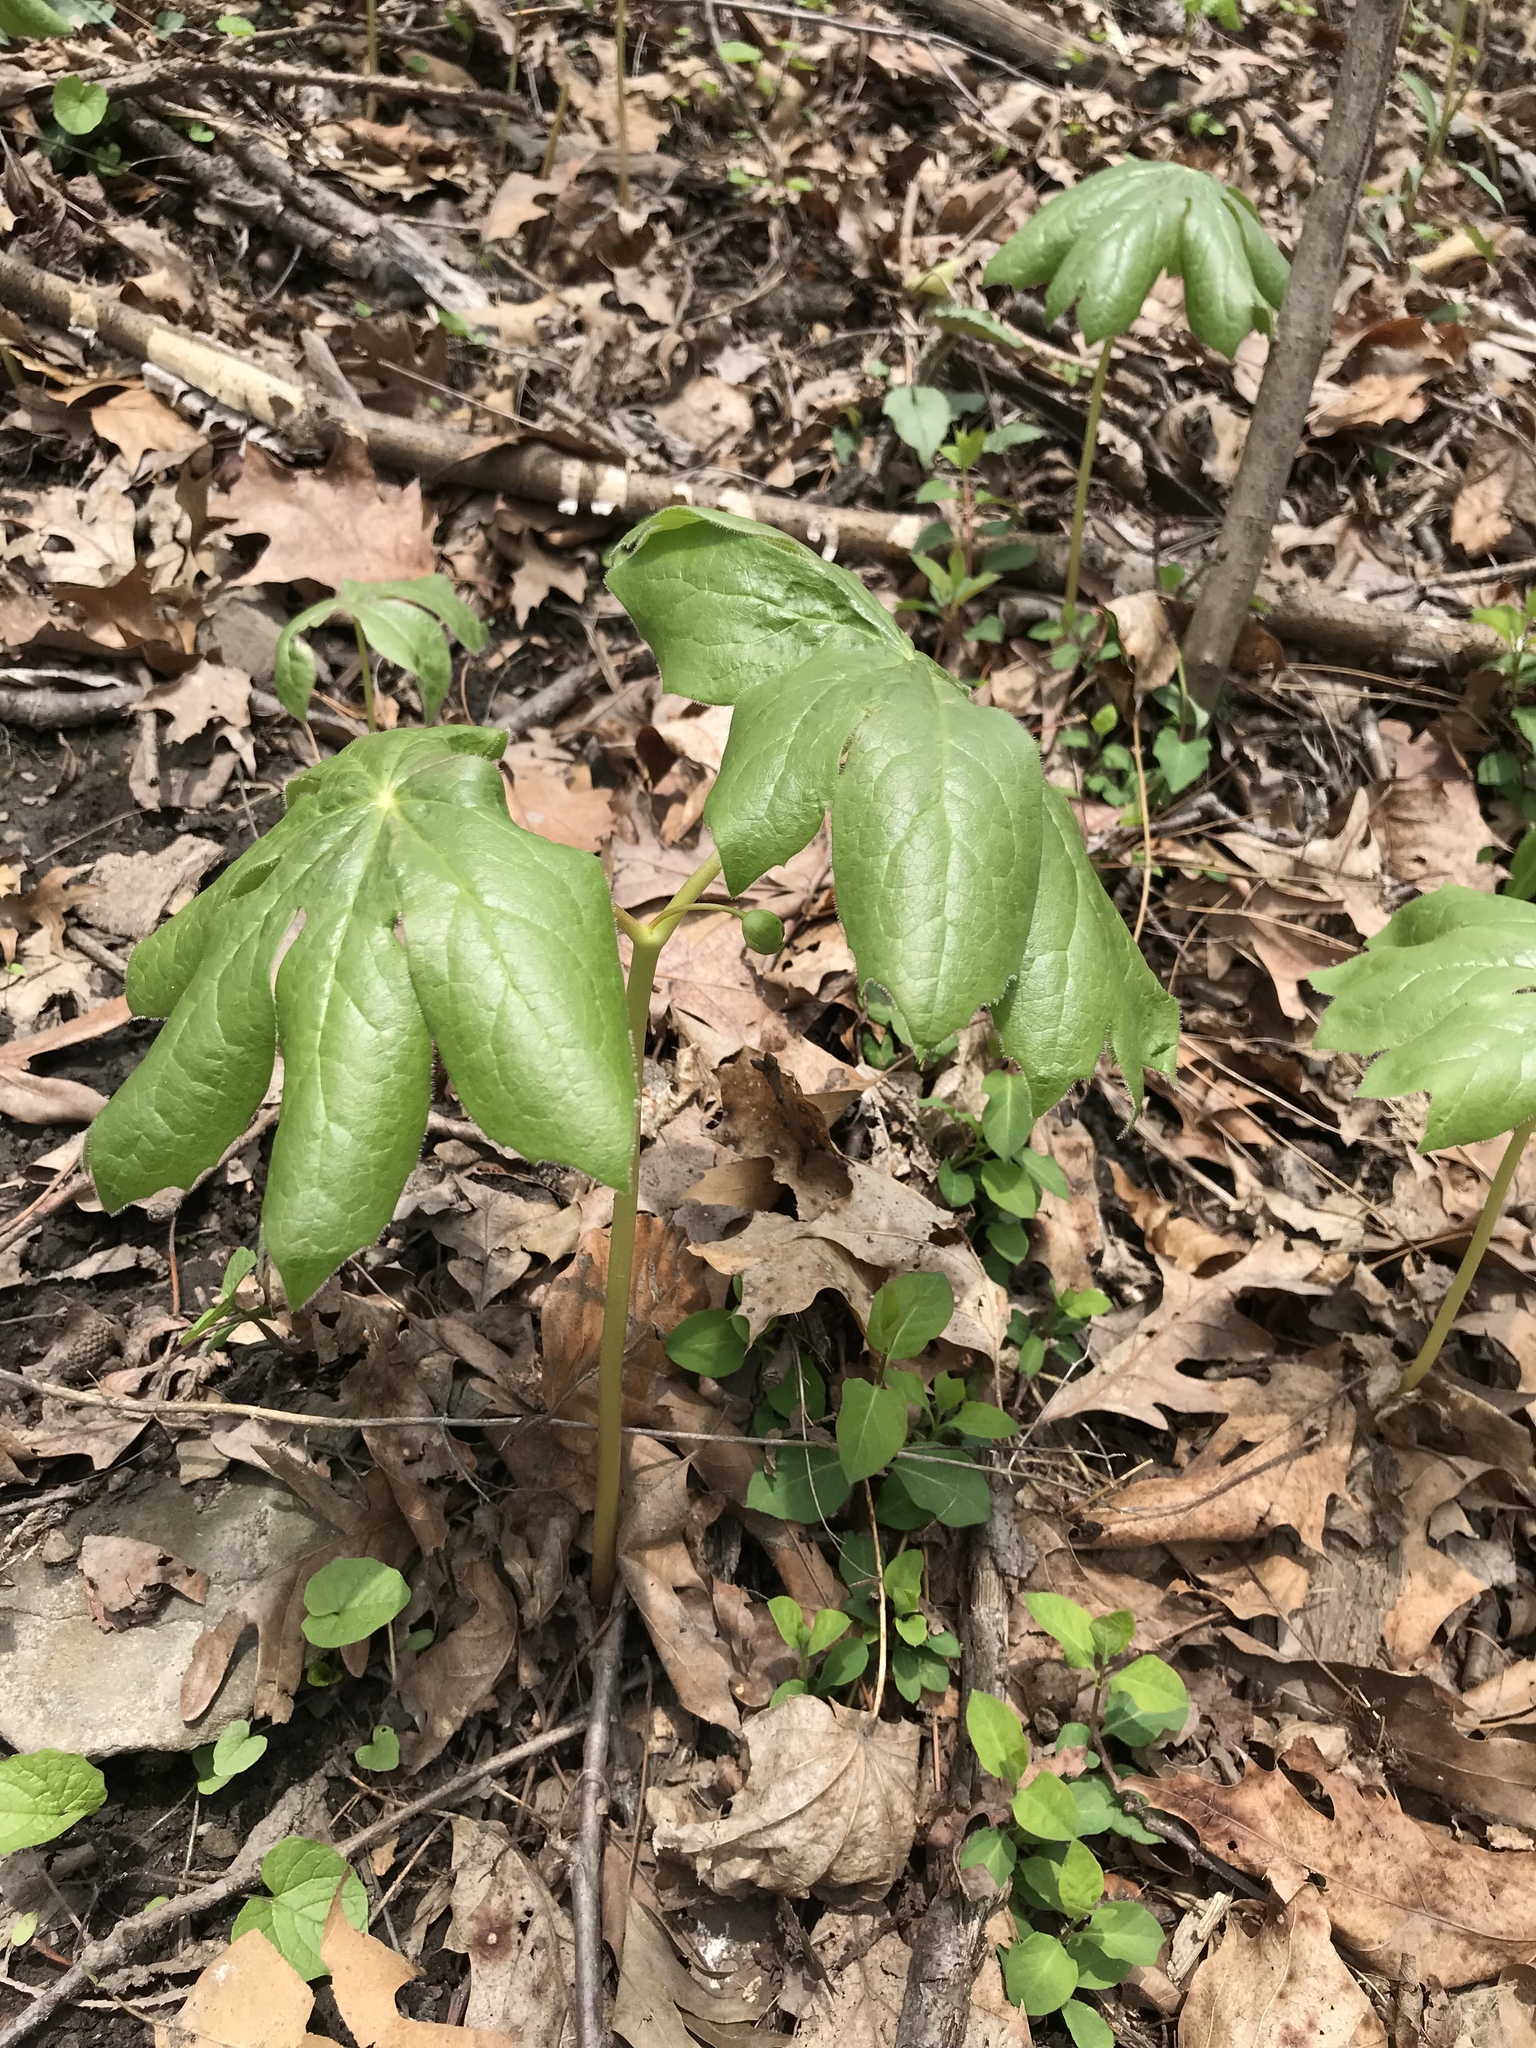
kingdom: Plantae
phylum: Tracheophyta
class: Magnoliopsida
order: Ranunculales
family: Berberidaceae
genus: Podophyllum
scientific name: Podophyllum peltatum
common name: Wild mandrake
